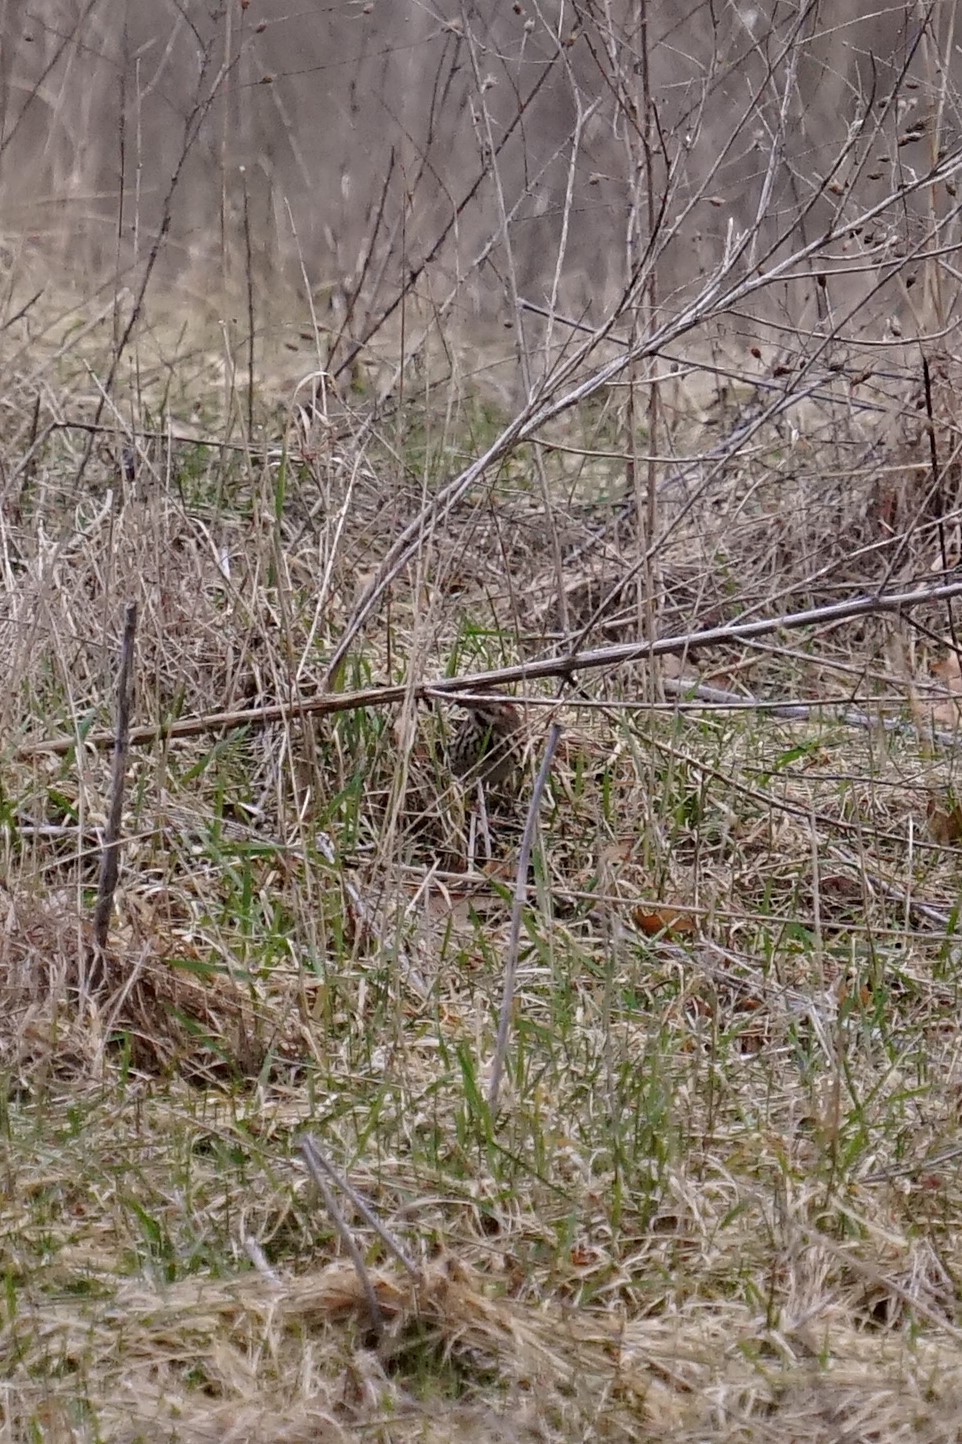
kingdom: Animalia
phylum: Chordata
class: Aves
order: Passeriformes
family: Passerellidae
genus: Melospiza
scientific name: Melospiza melodia
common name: Song sparrow
